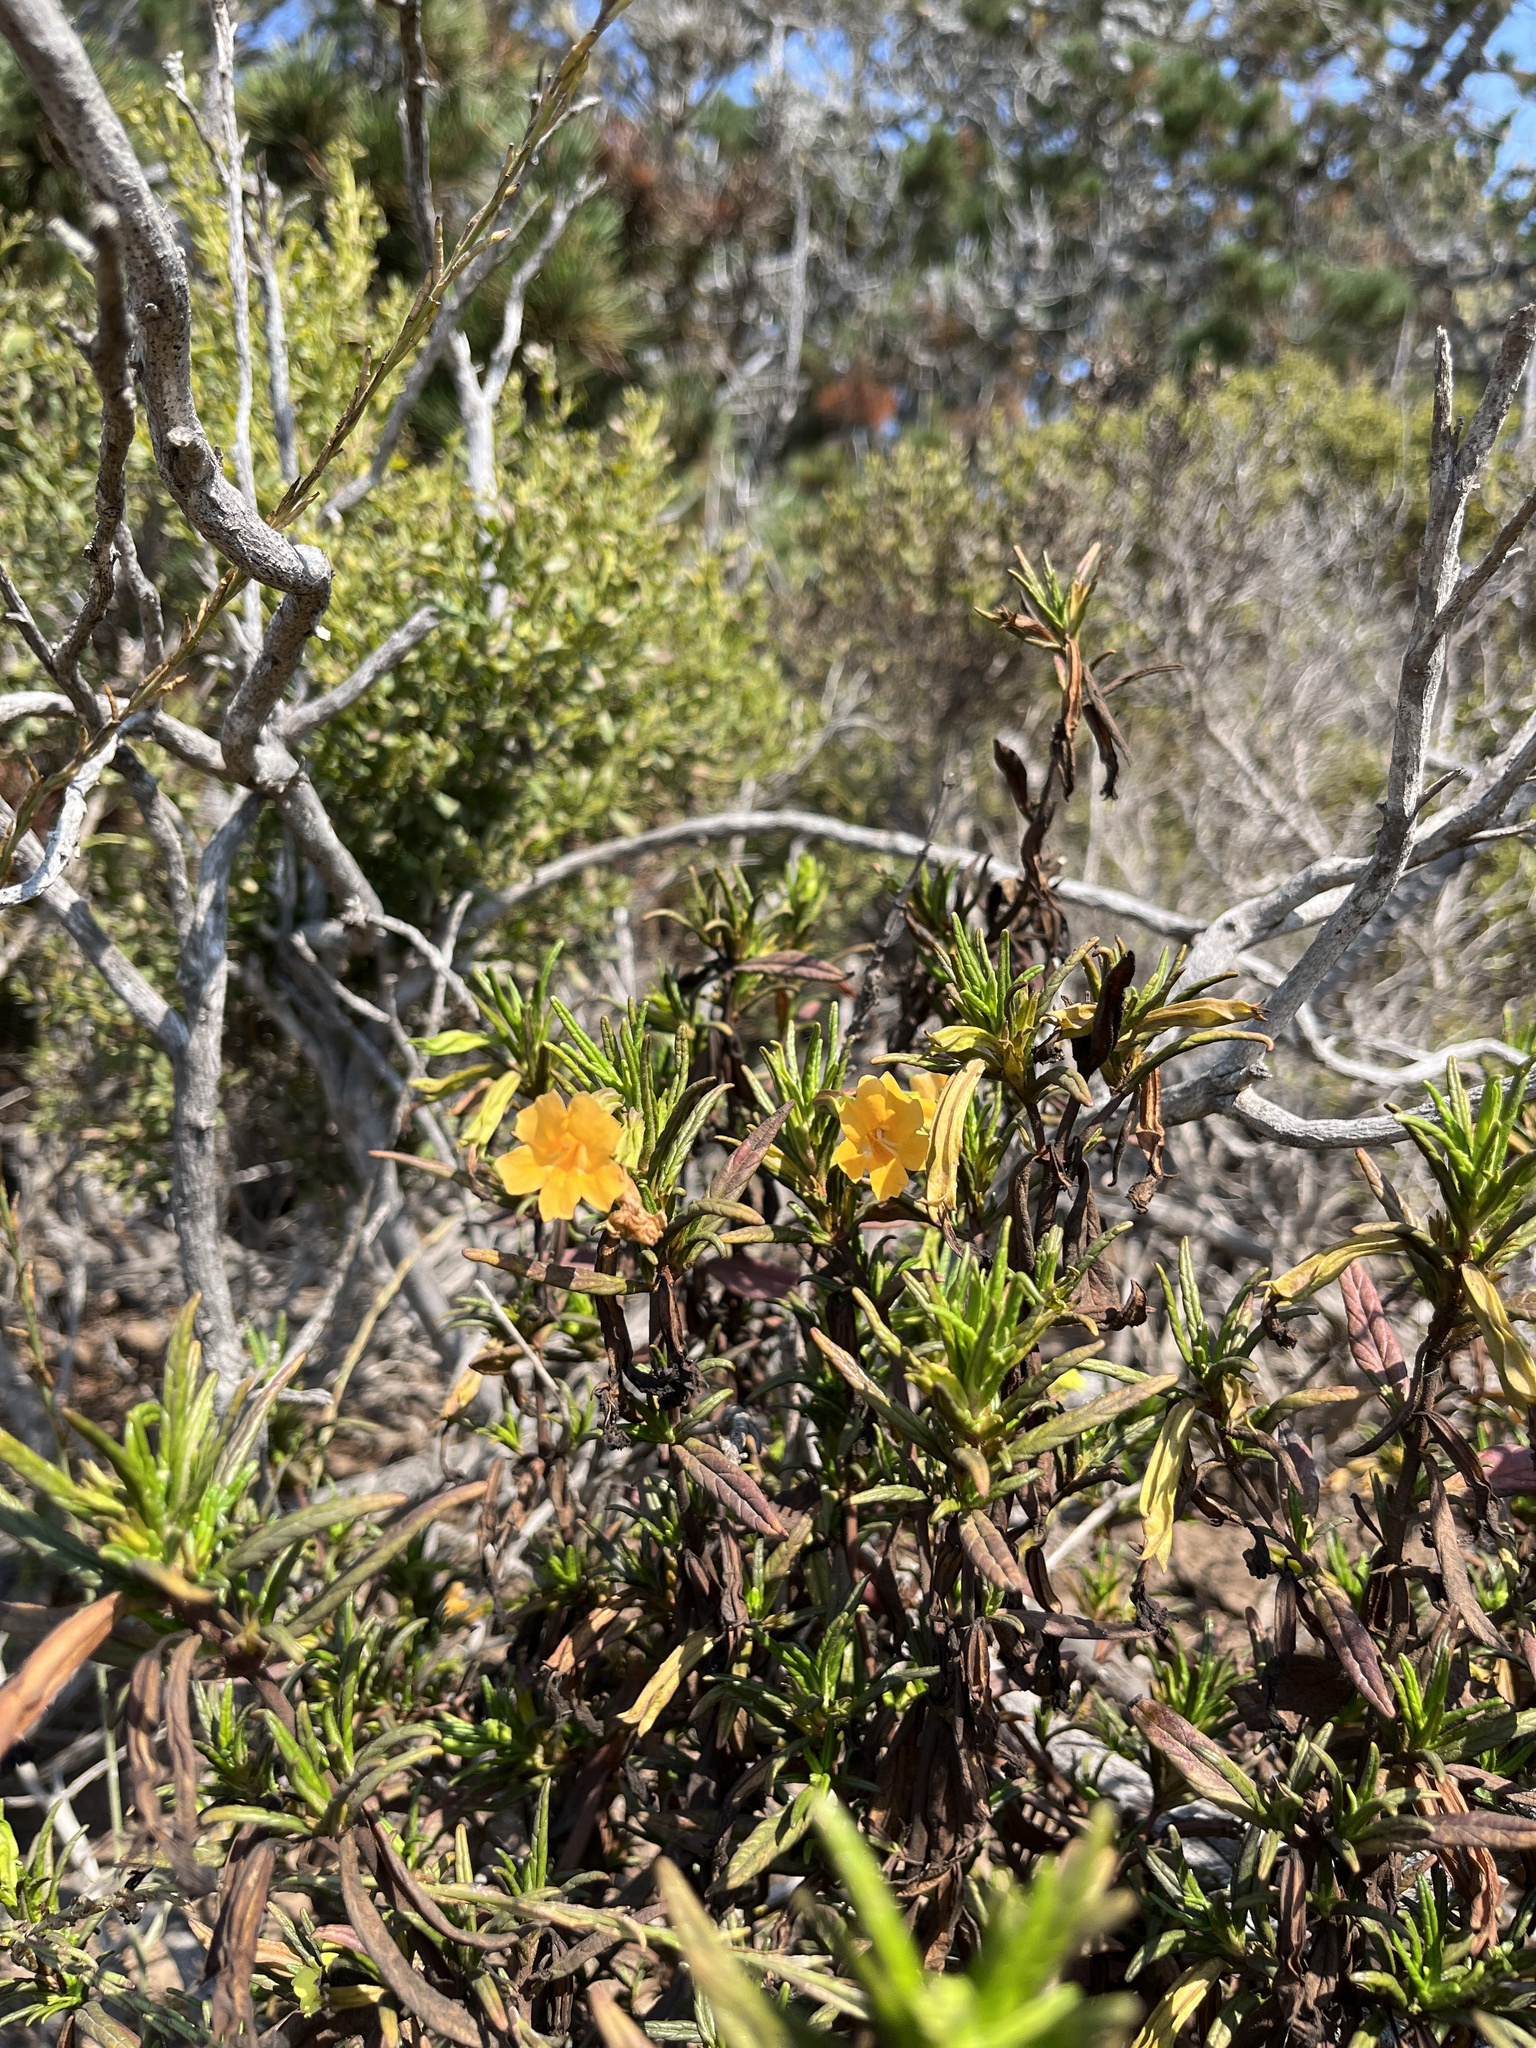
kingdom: Plantae
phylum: Tracheophyta
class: Magnoliopsida
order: Lamiales
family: Phrymaceae
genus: Diplacus
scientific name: Diplacus aurantiacus
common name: Bush monkey-flower
